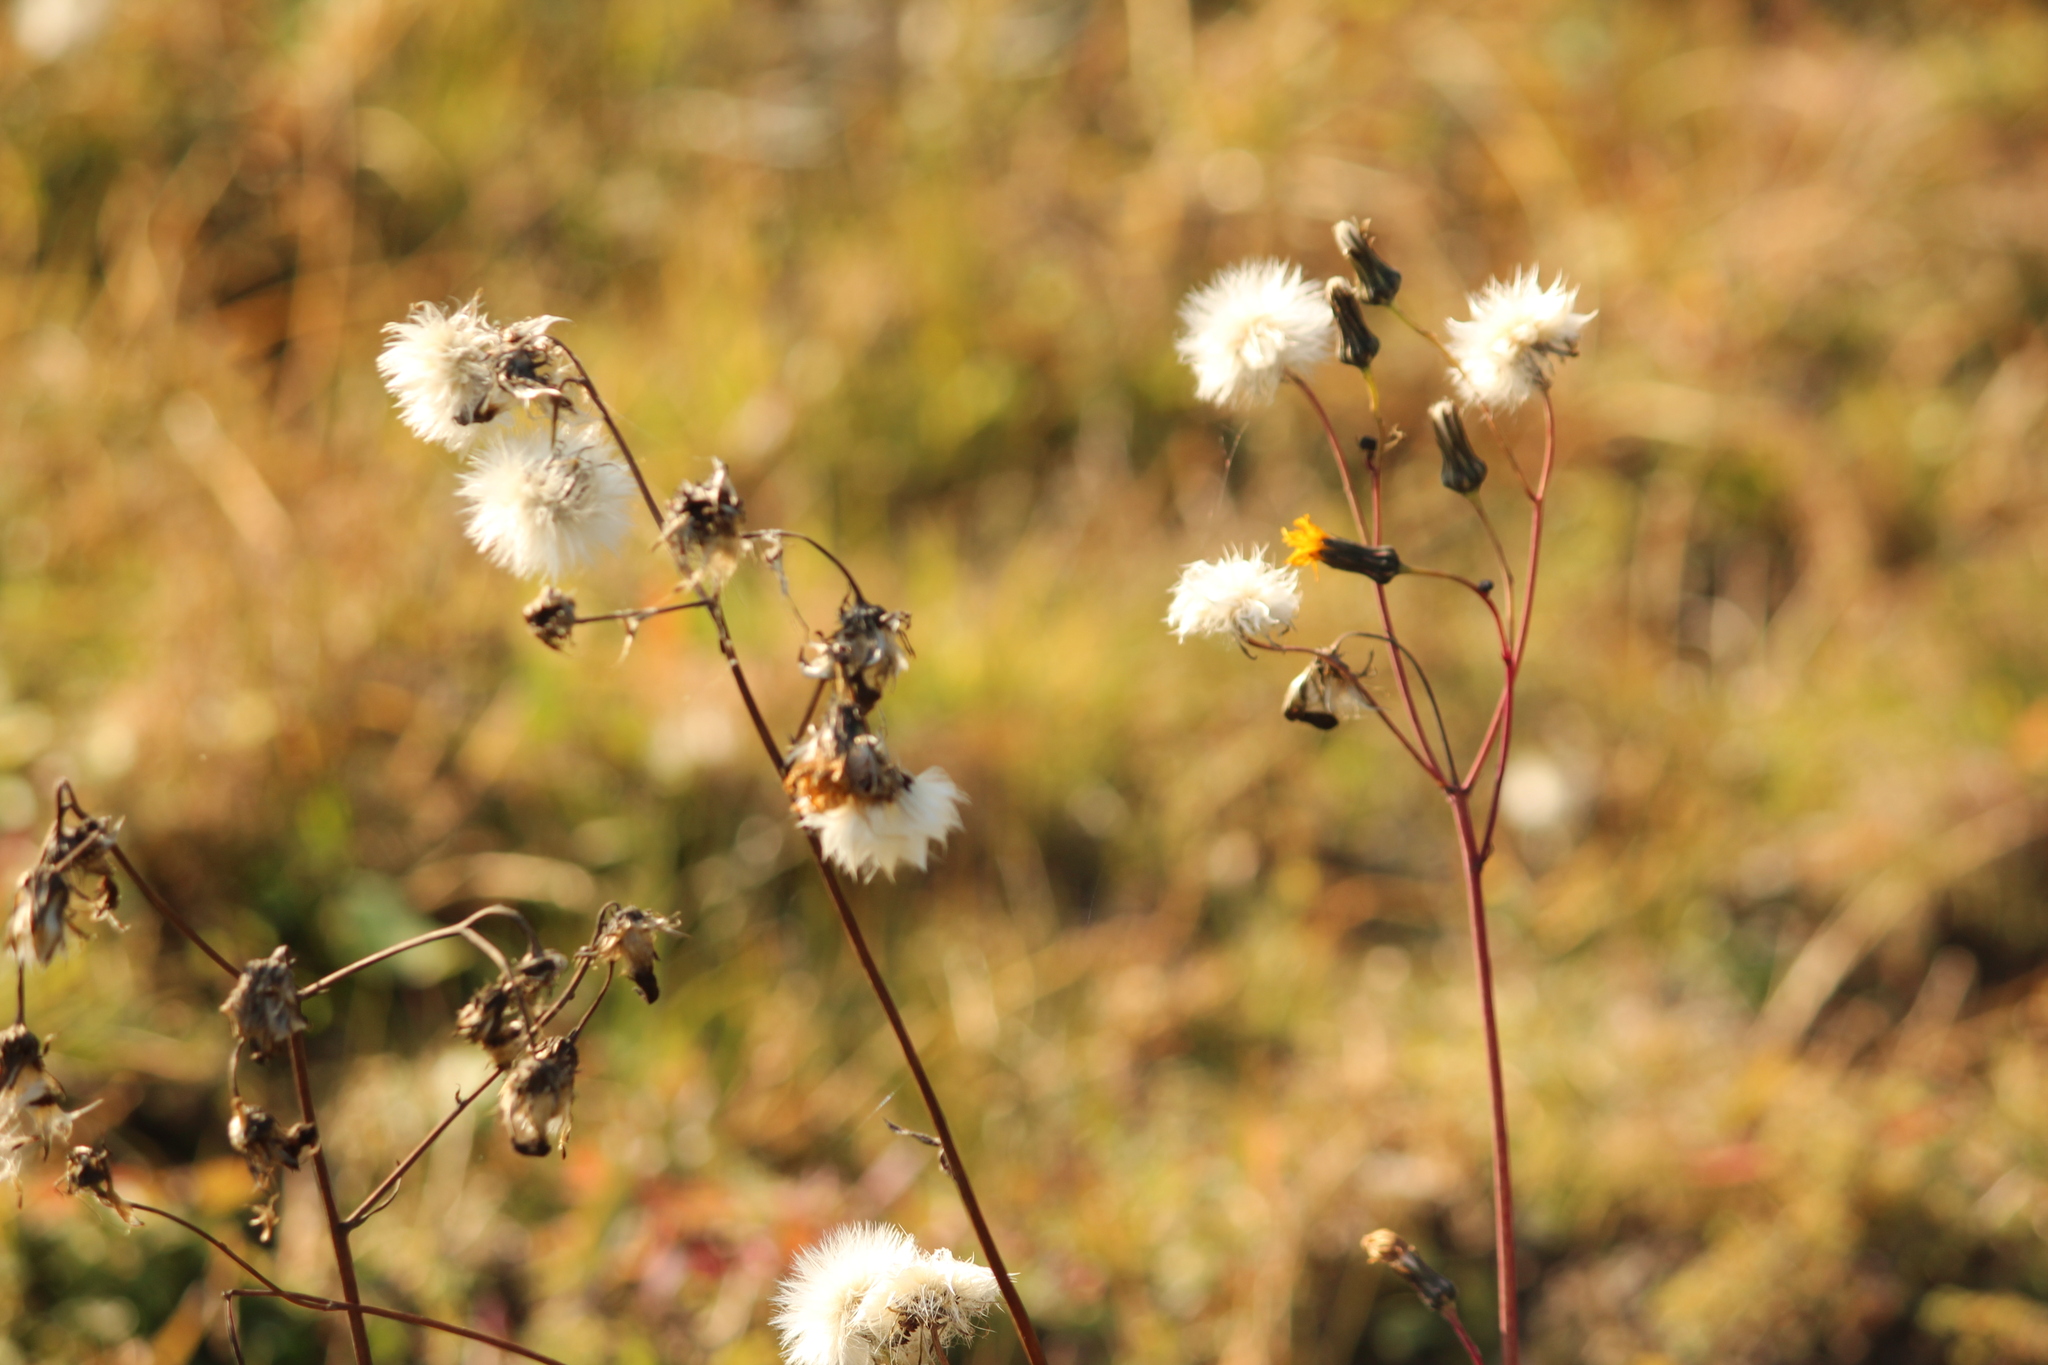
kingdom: Plantae
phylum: Tracheophyta
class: Magnoliopsida
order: Asterales
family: Asteraceae
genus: Sonchus
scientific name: Sonchus arvensis
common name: Perennial sow-thistle
